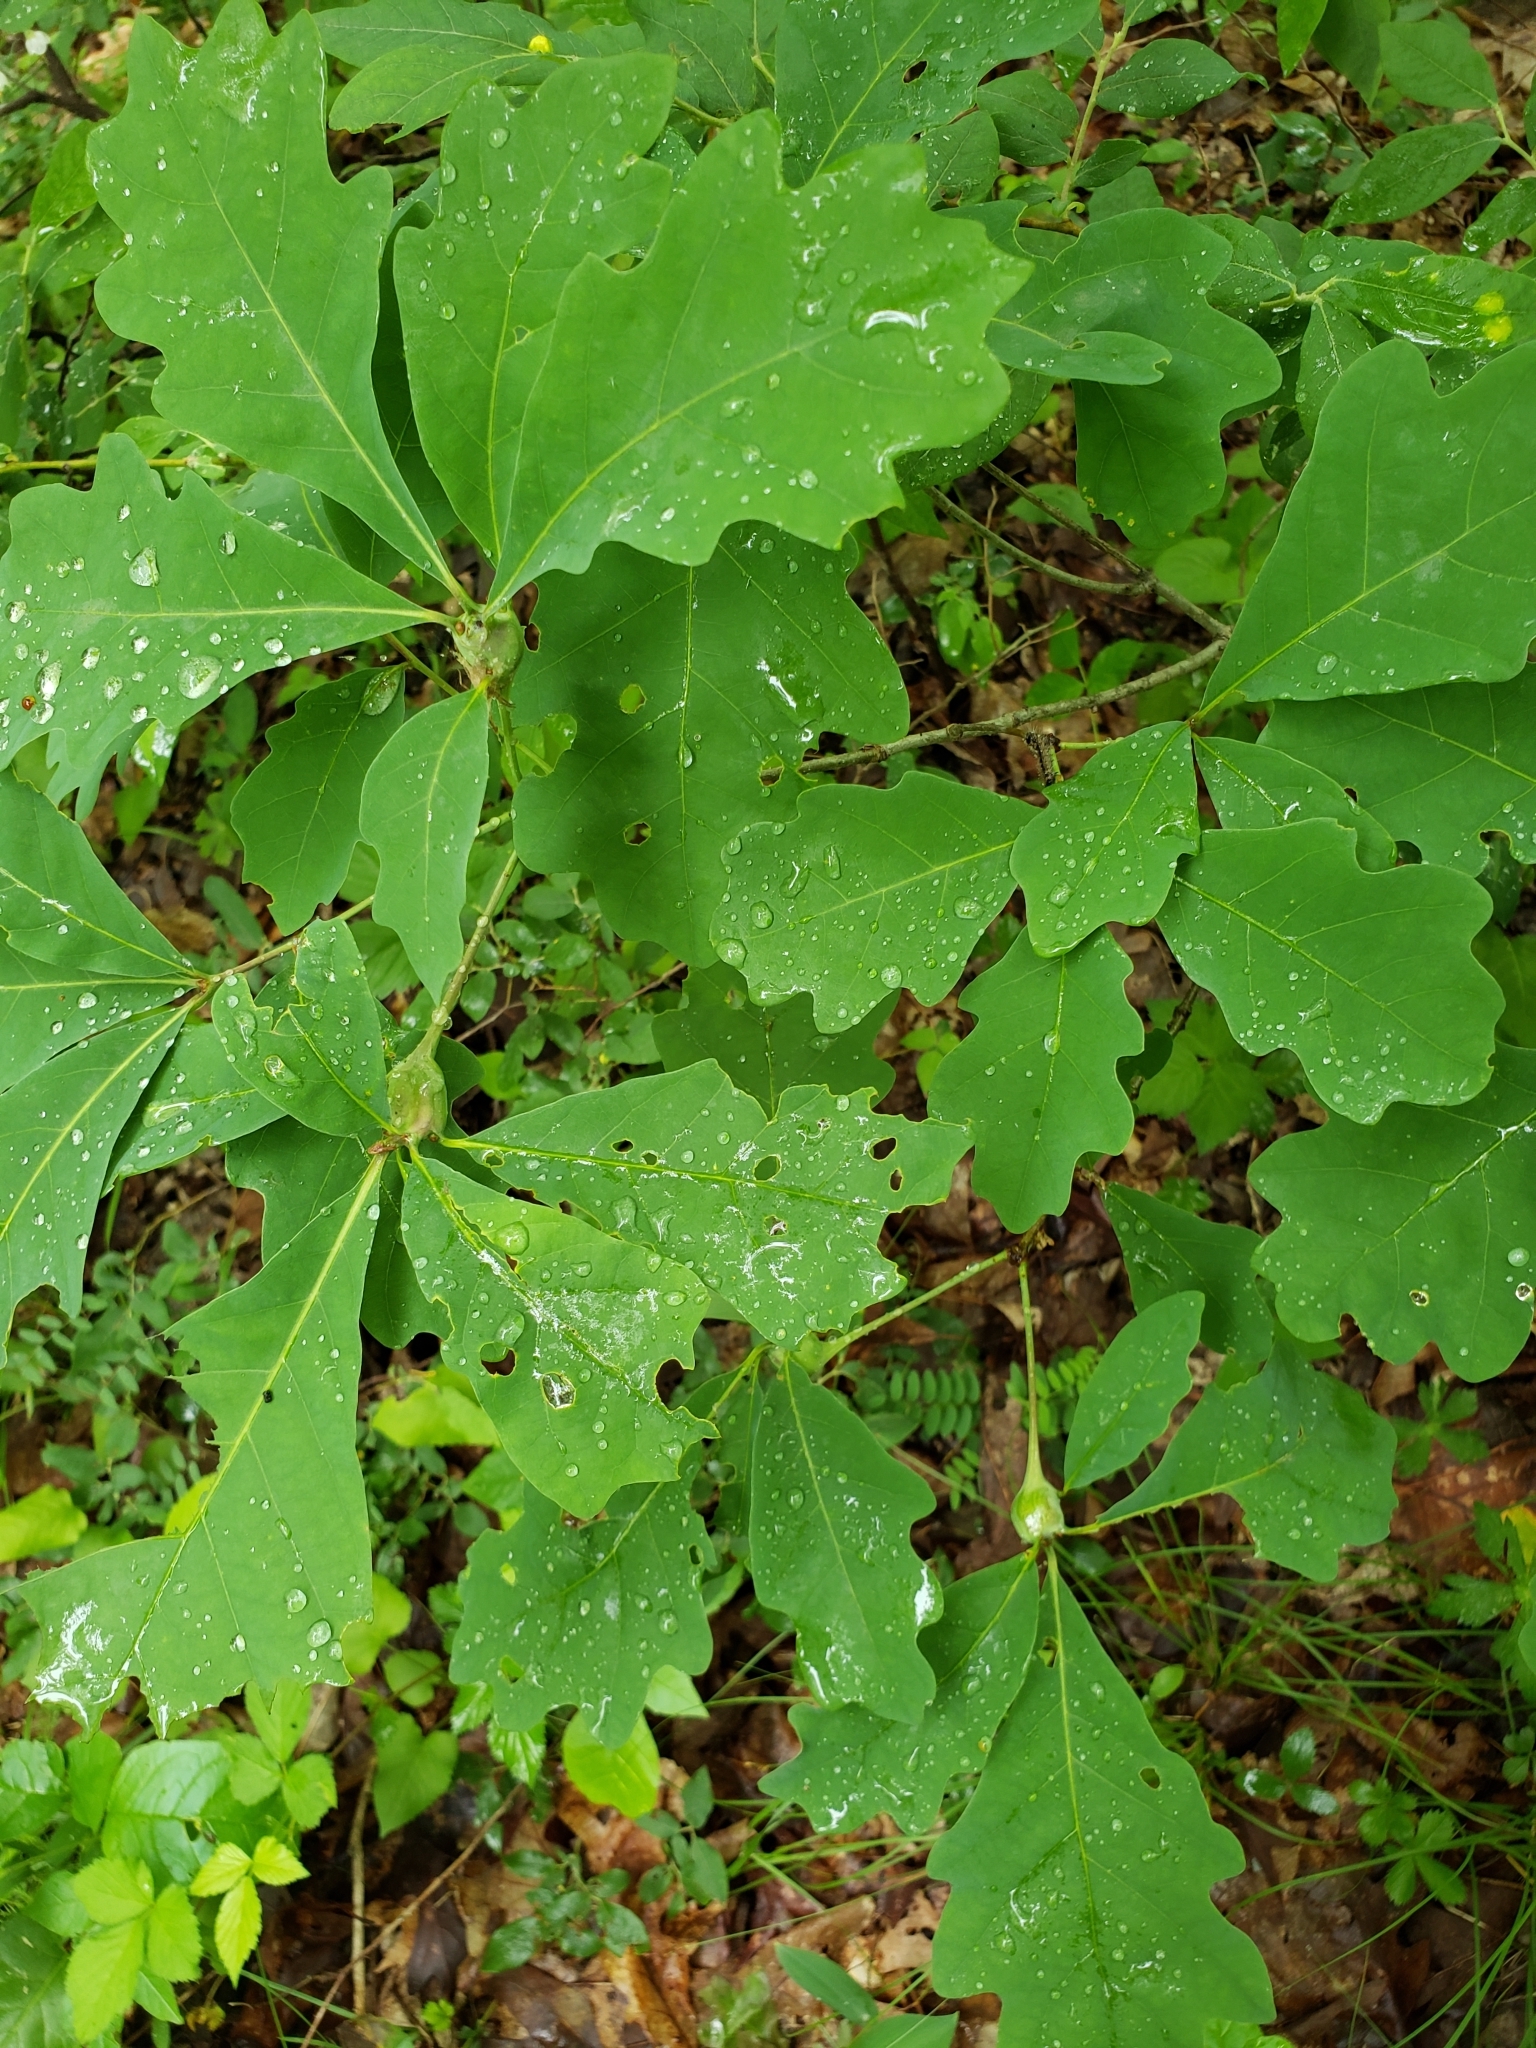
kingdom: Animalia
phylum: Arthropoda
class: Insecta
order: Hymenoptera
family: Cynipidae
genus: Callirhytis
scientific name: Callirhytis clavula
